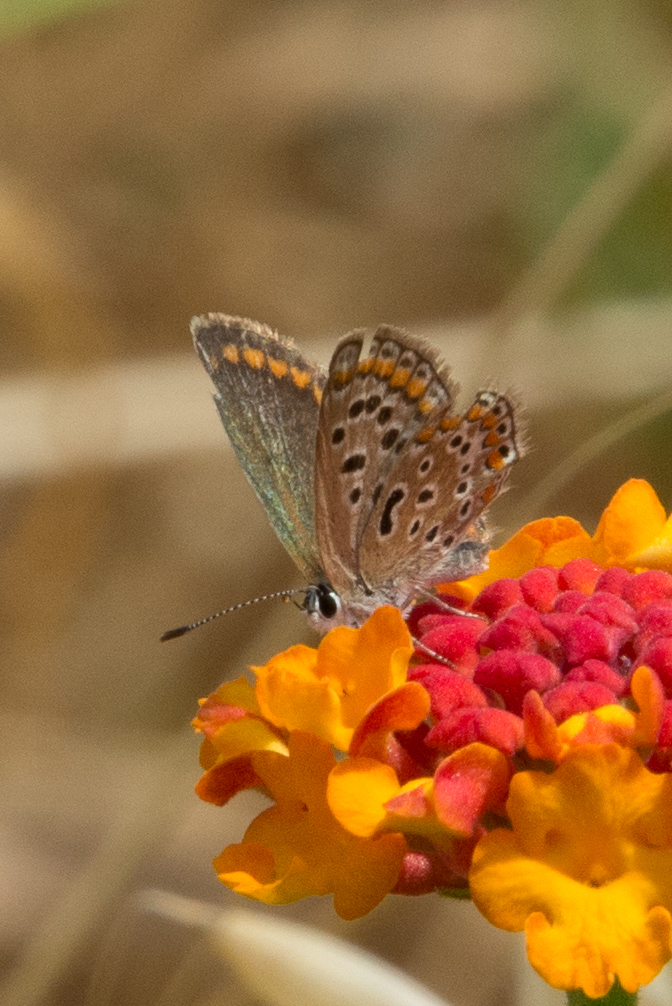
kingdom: Animalia
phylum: Arthropoda
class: Insecta
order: Lepidoptera
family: Lycaenidae
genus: Polyommatus
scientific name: Polyommatus celina
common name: Austaut's blue
